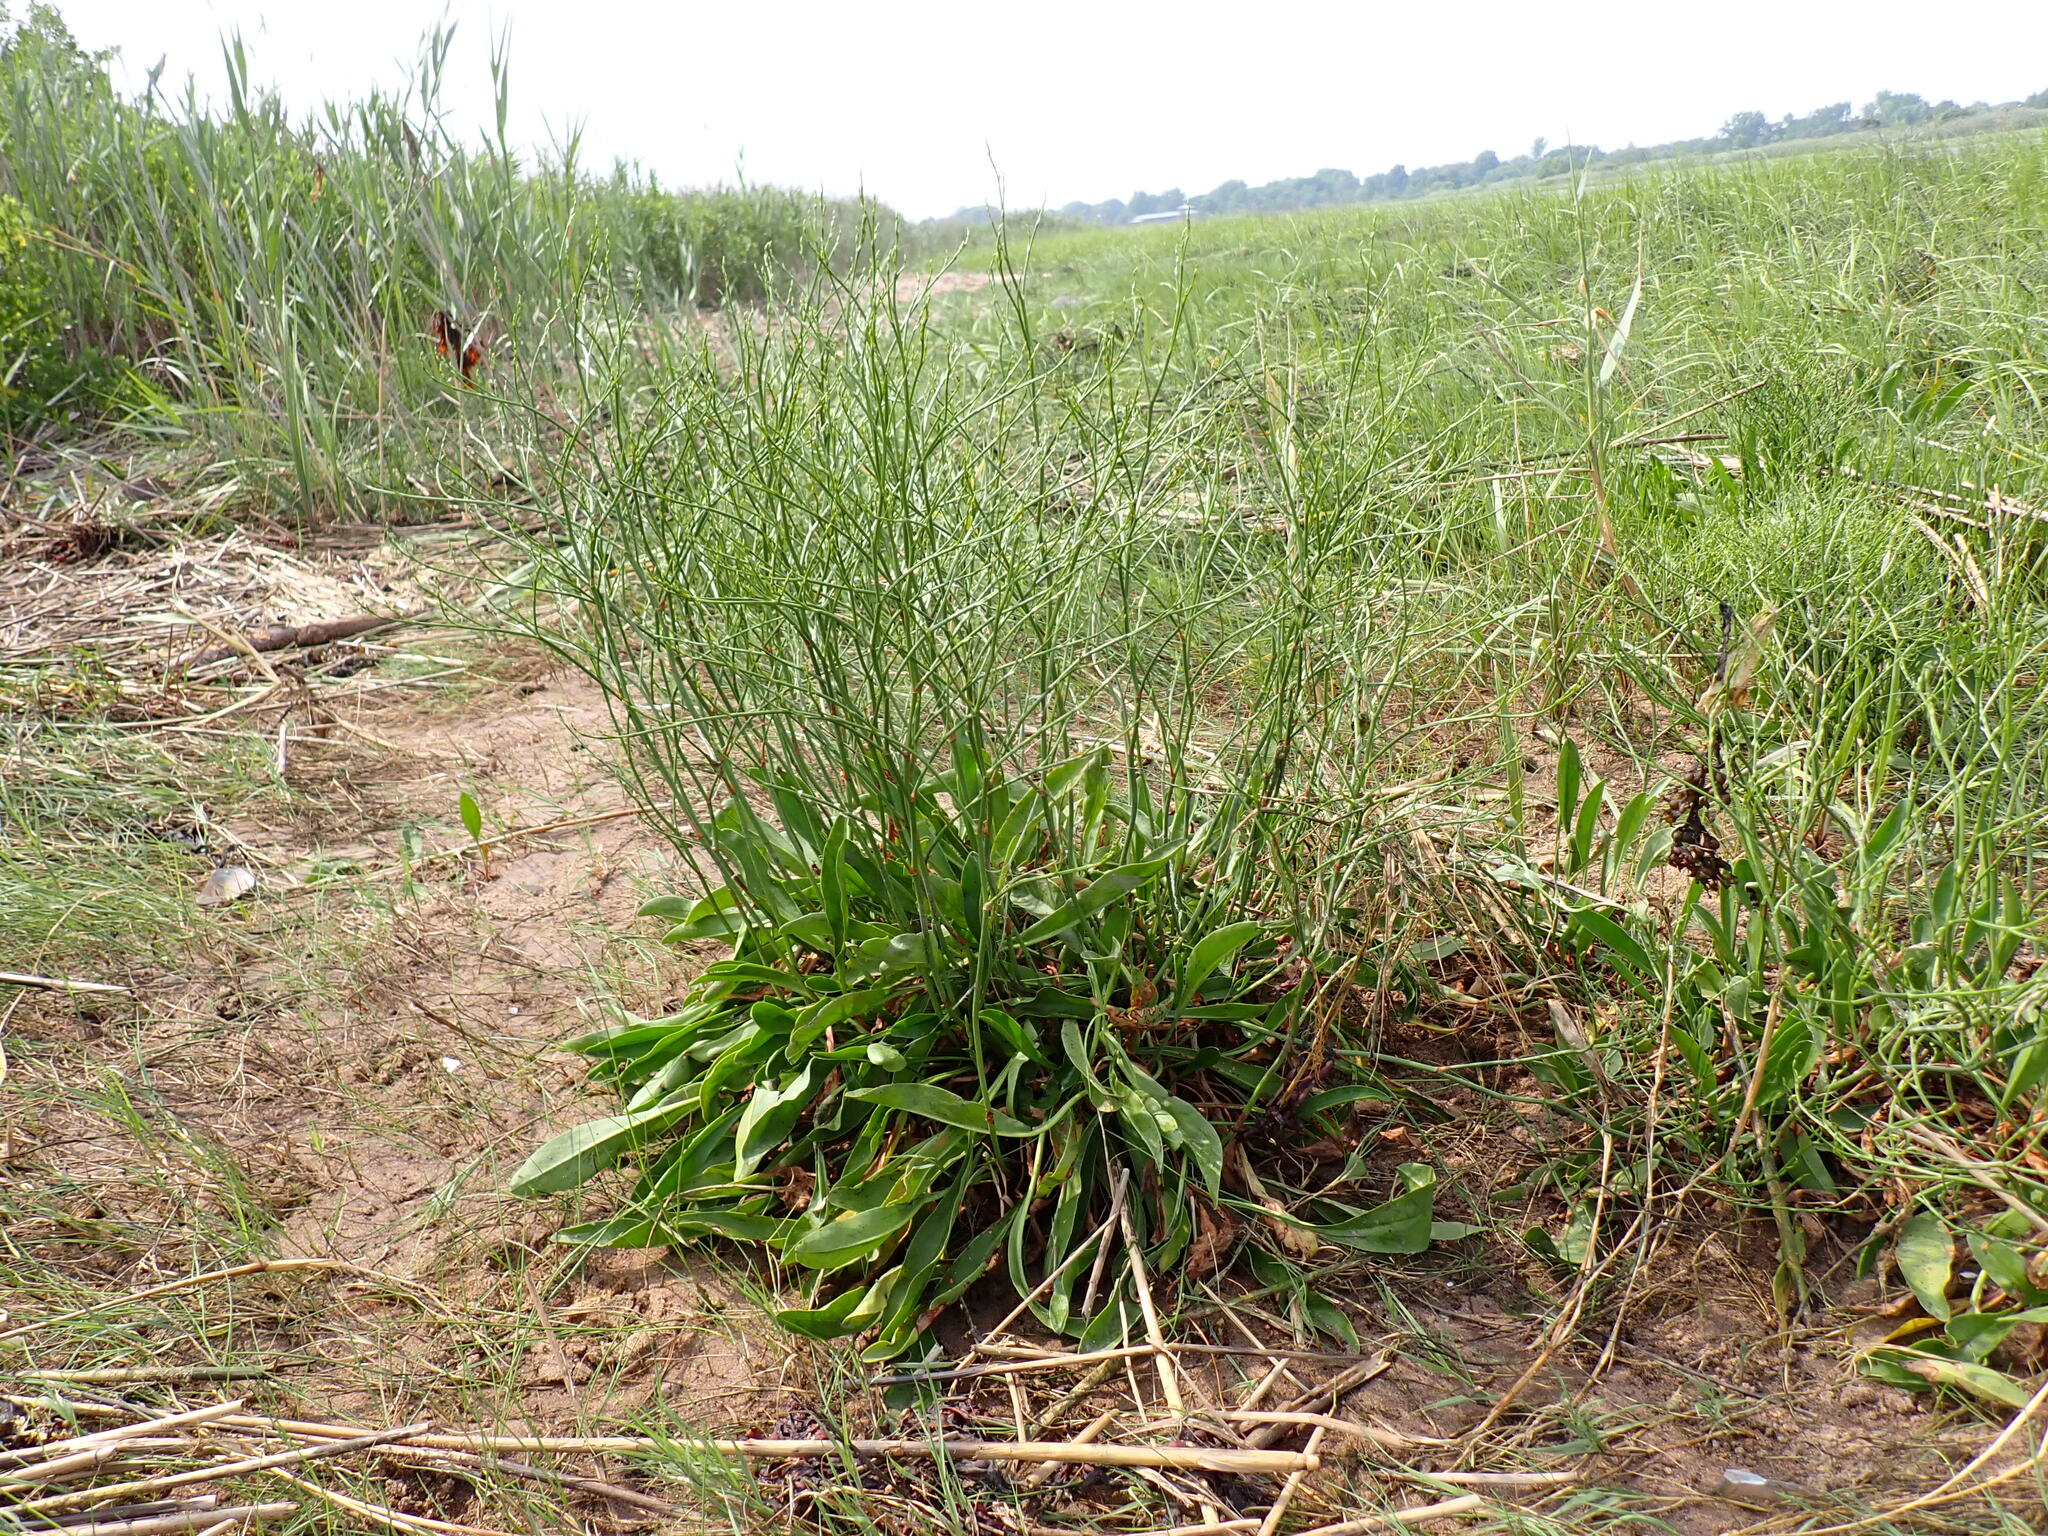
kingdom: Plantae
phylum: Tracheophyta
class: Magnoliopsida
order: Caryophyllales
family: Plumbaginaceae
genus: Limonium
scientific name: Limonium carolinianum
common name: Carolina sea lavender
